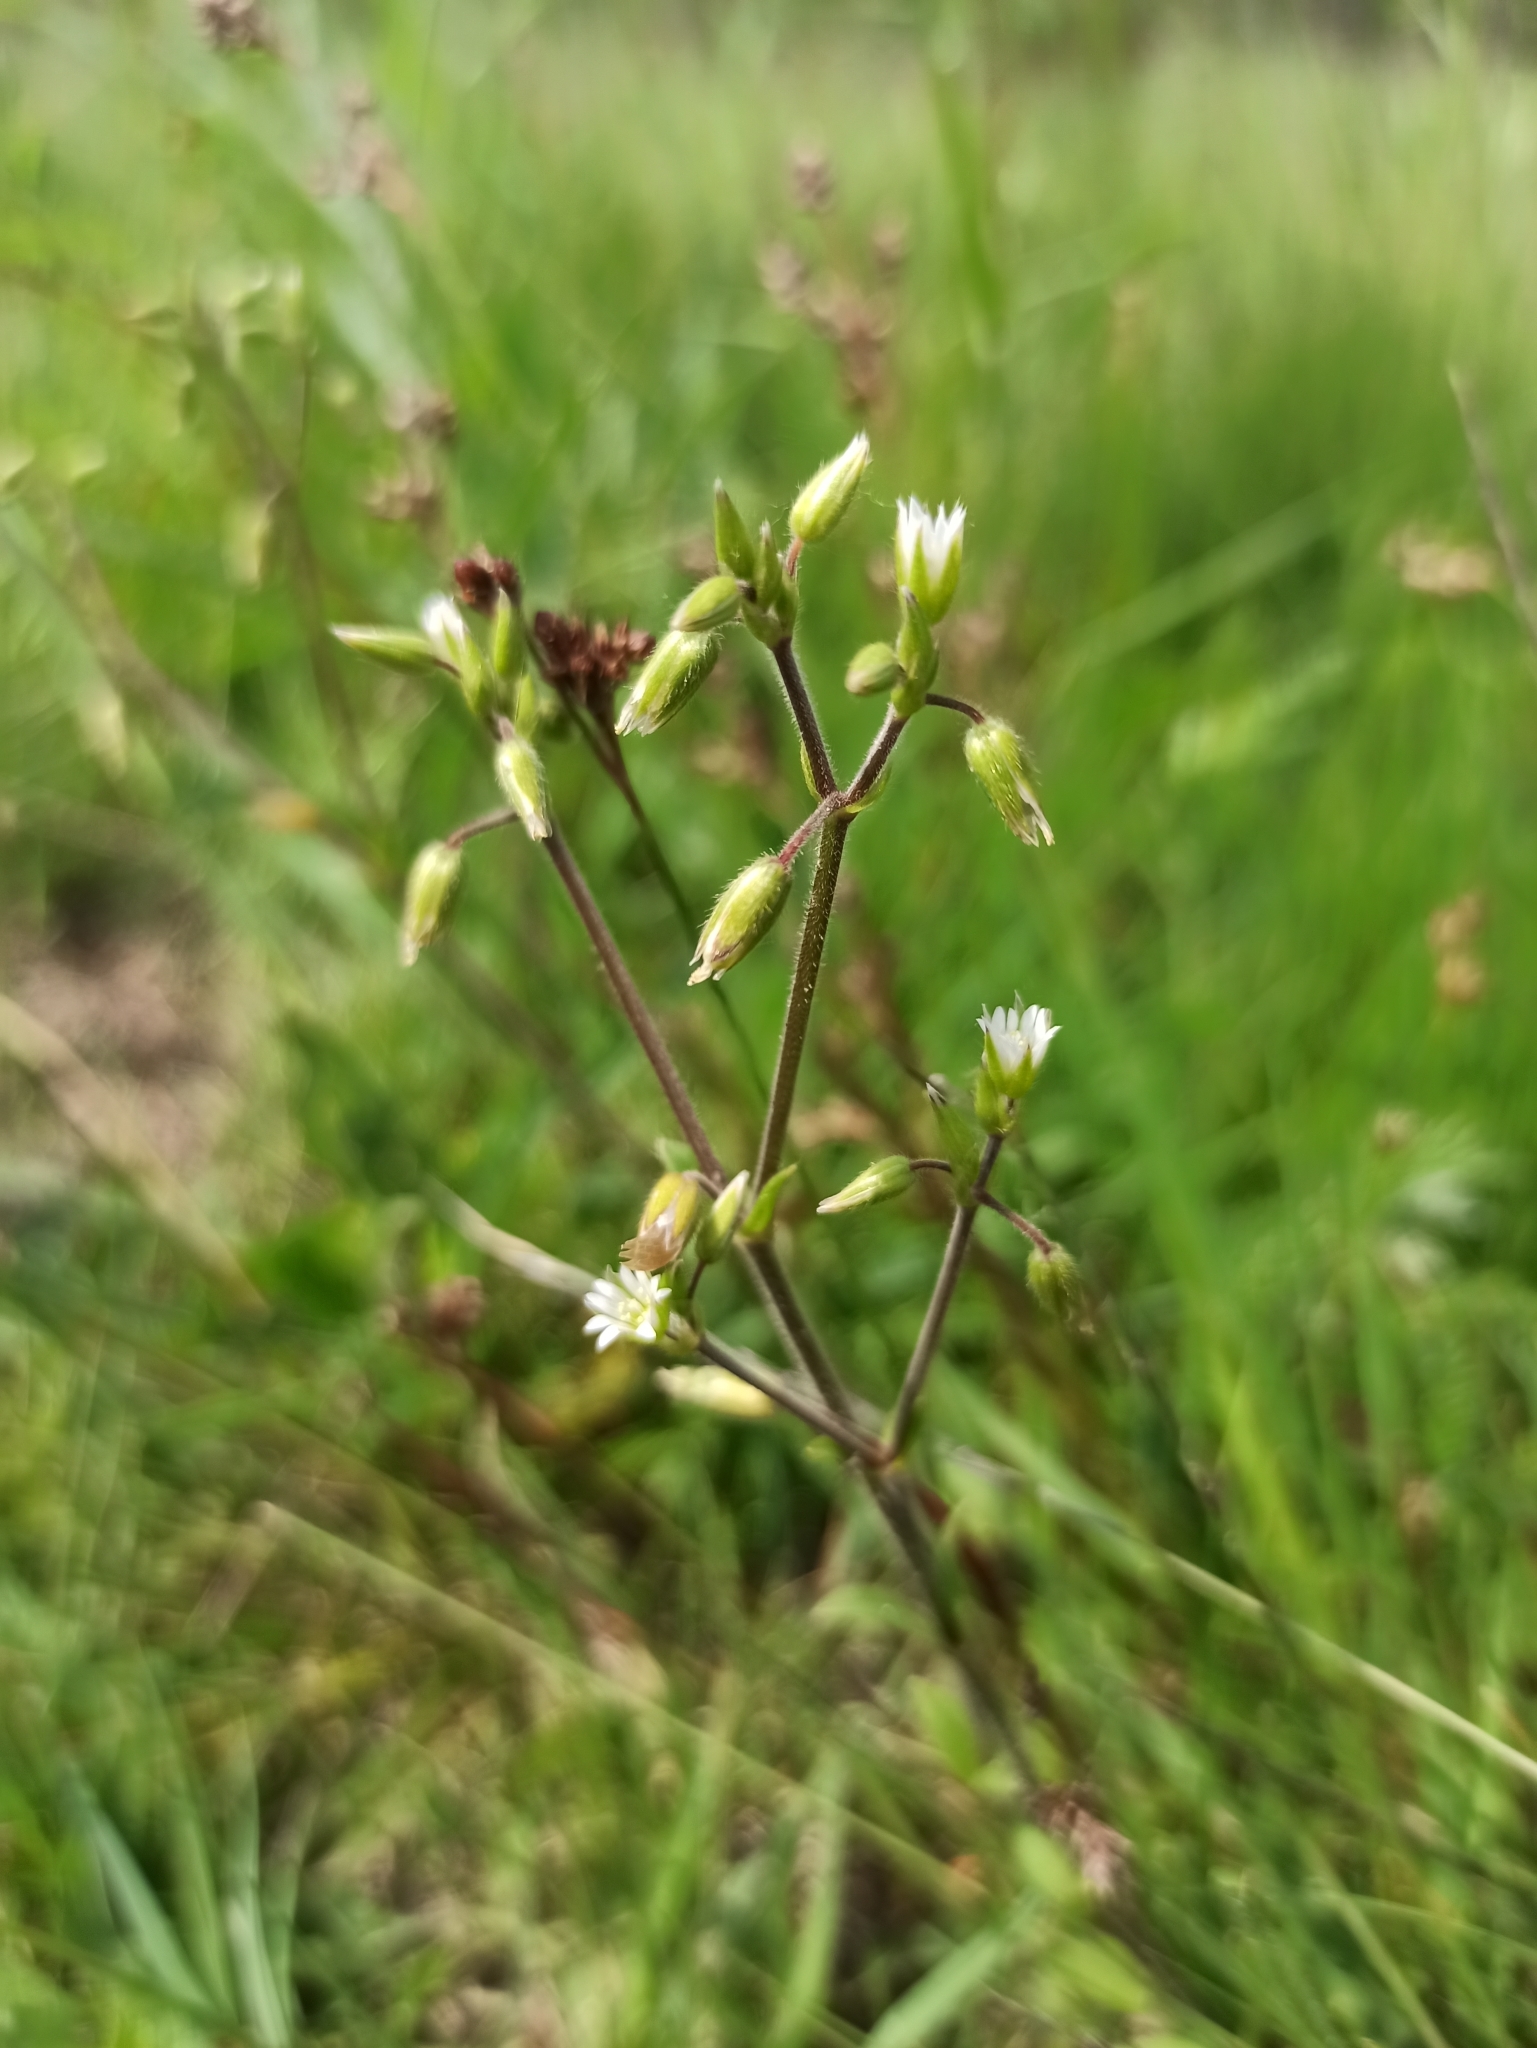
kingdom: Plantae
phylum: Tracheophyta
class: Magnoliopsida
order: Caryophyllales
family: Caryophyllaceae
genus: Cerastium
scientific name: Cerastium holosteoides
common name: Big chickweed
